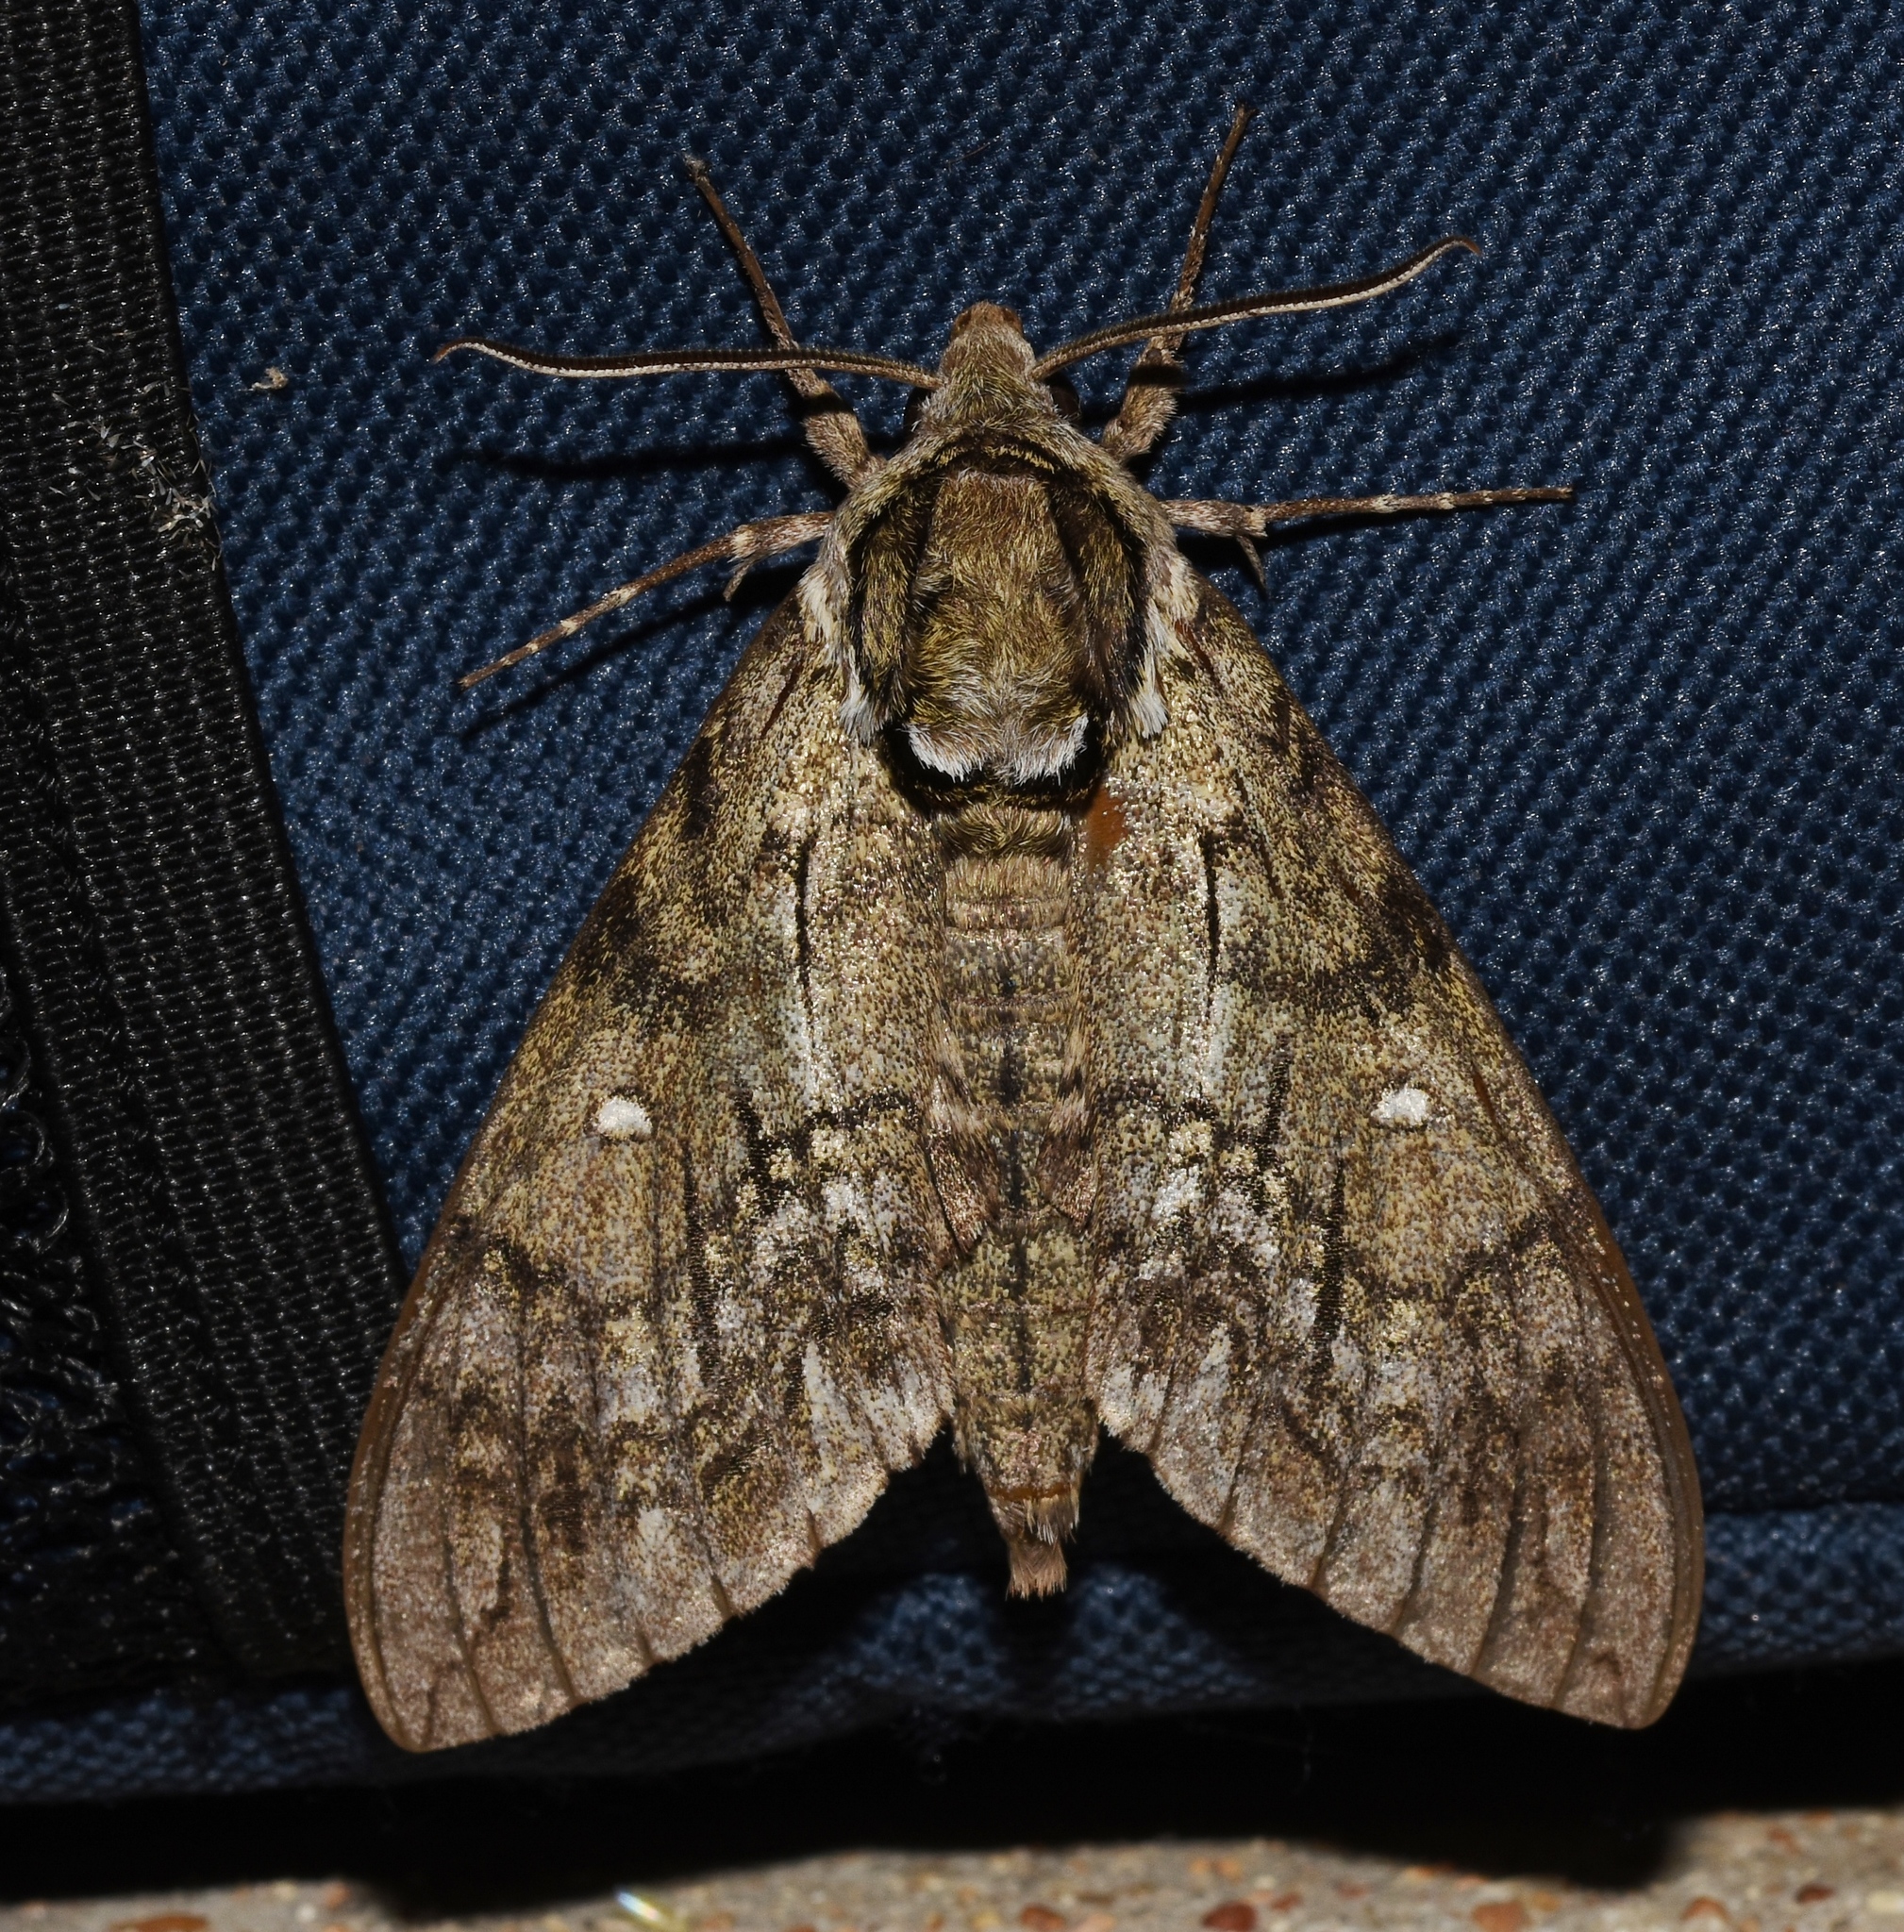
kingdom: Animalia
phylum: Arthropoda
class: Insecta
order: Lepidoptera
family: Sphingidae
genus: Ceratomia
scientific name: Ceratomia undulosa
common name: Waved sphinx
